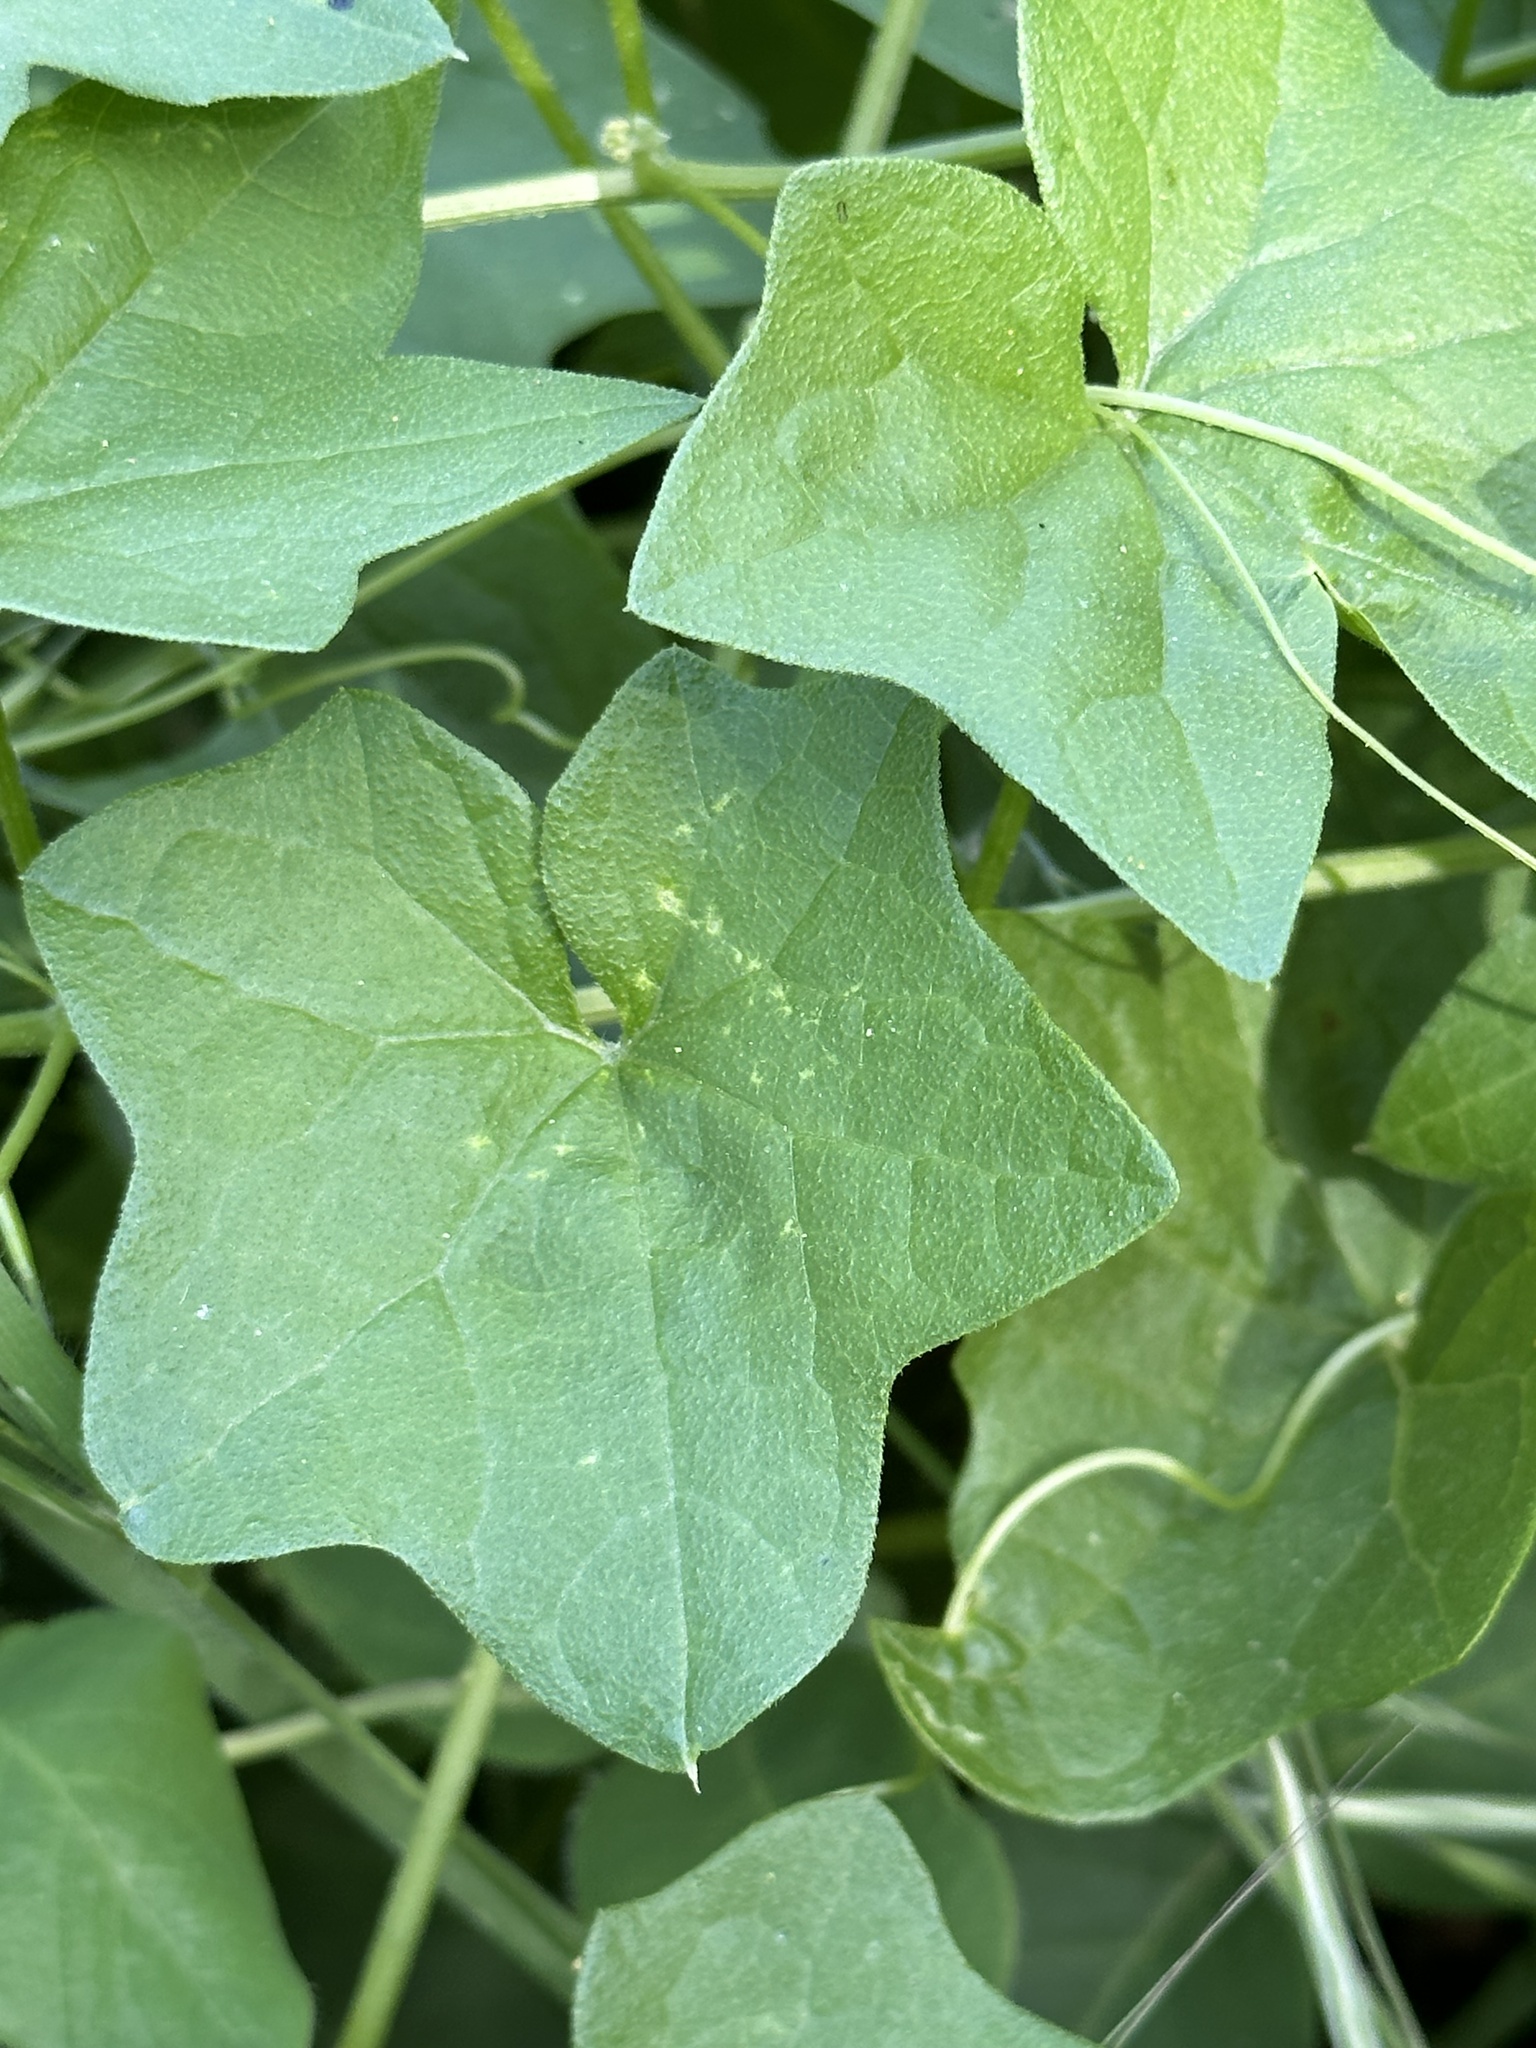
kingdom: Plantae
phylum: Tracheophyta
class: Magnoliopsida
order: Cucurbitales
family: Cucurbitaceae
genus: Marah
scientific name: Marah fabacea
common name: California manroot
